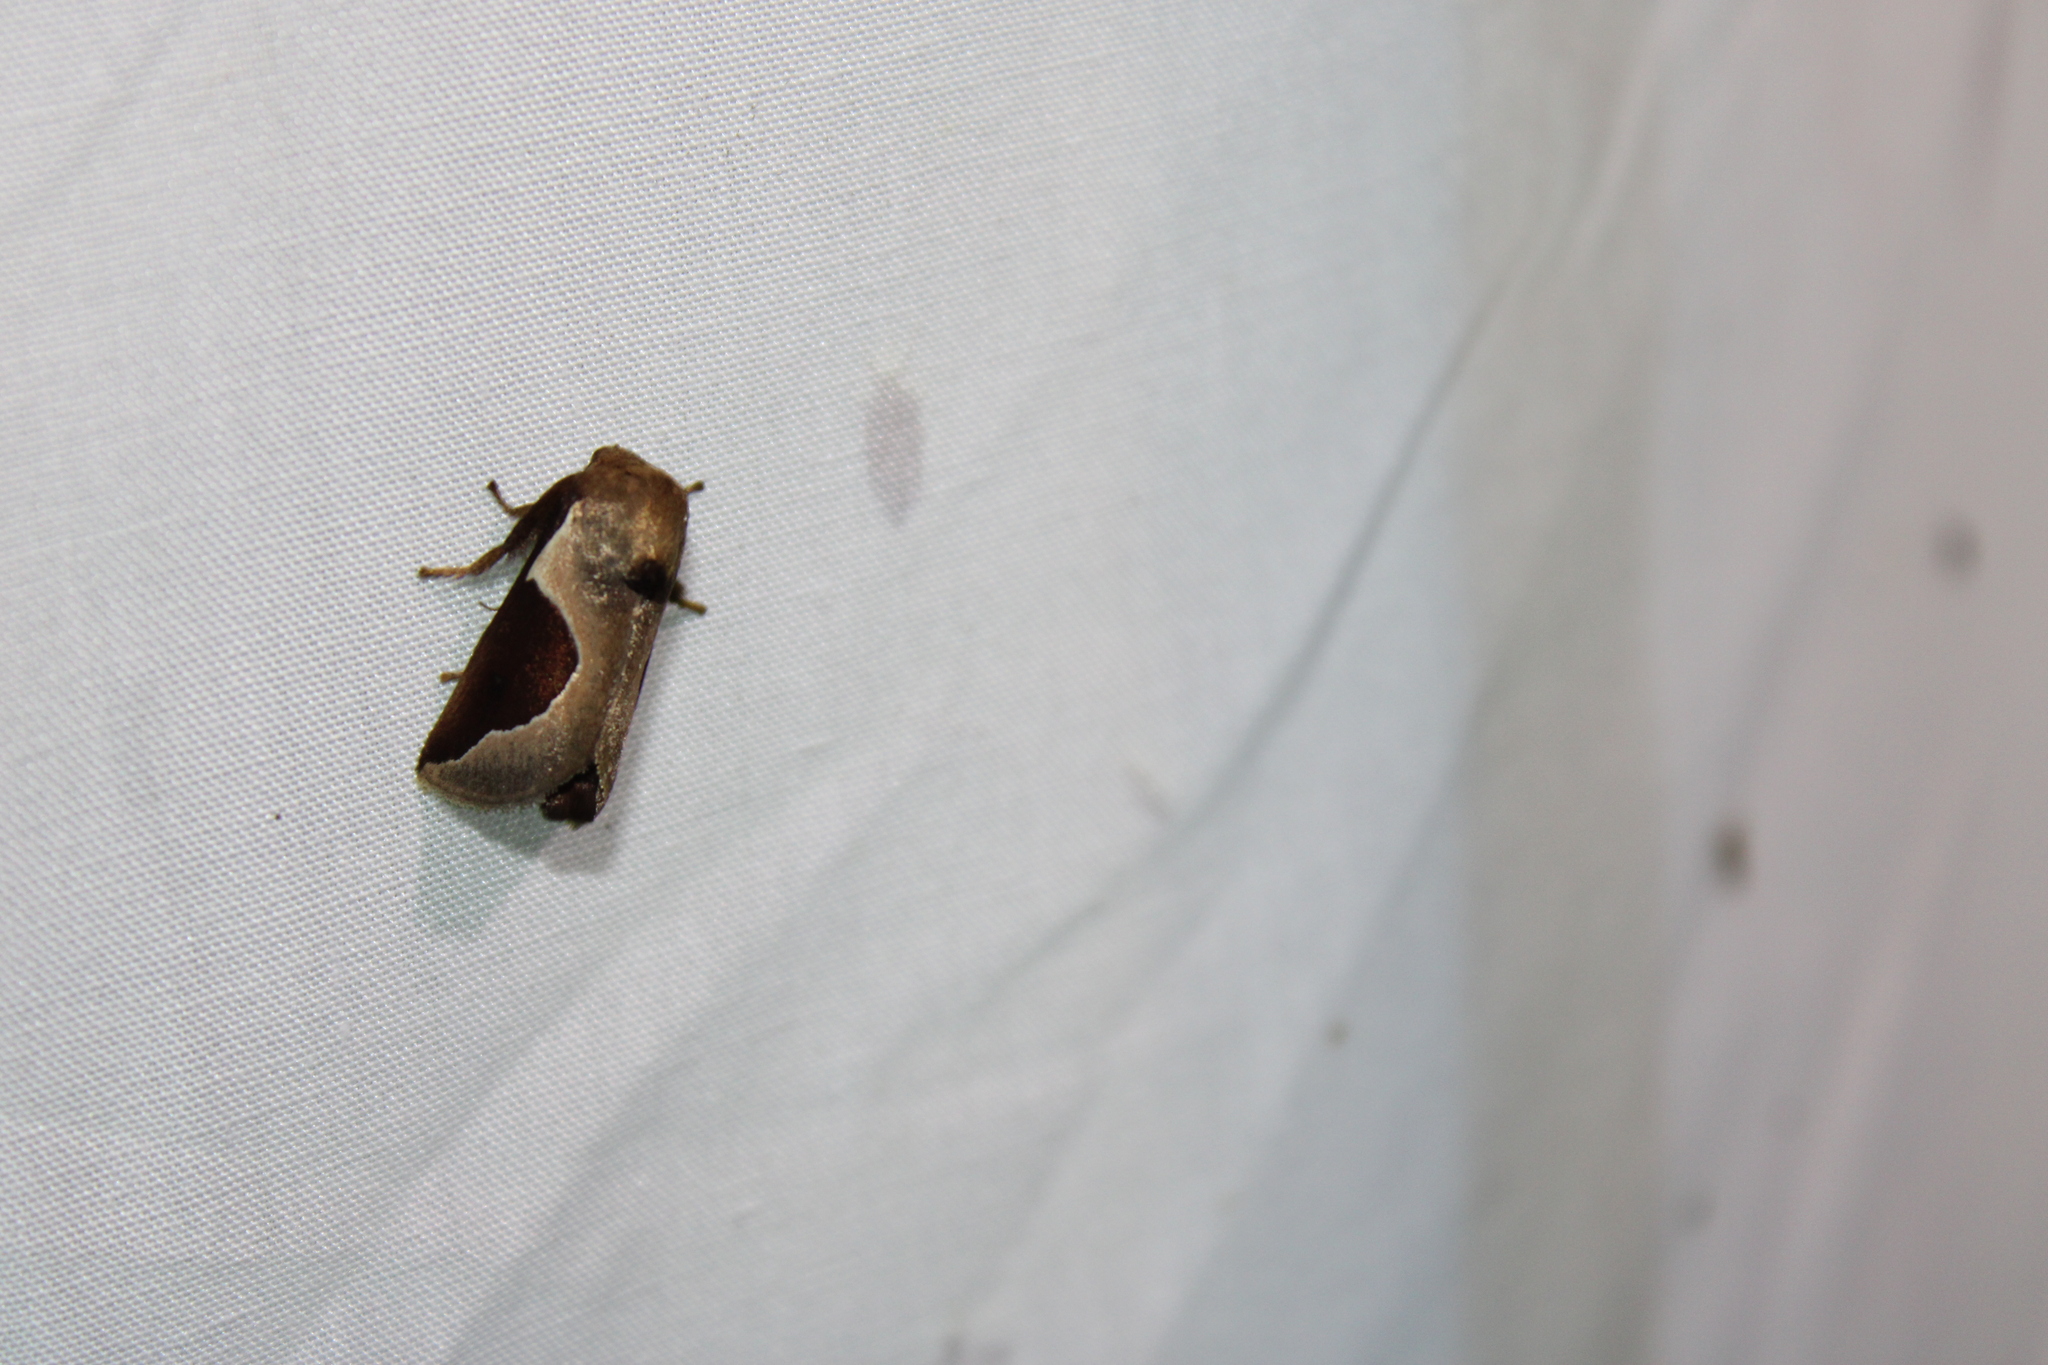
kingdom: Animalia
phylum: Arthropoda
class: Insecta
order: Lepidoptera
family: Limacodidae
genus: Prolimacodes
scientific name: Prolimacodes badia
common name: Skiff moth
